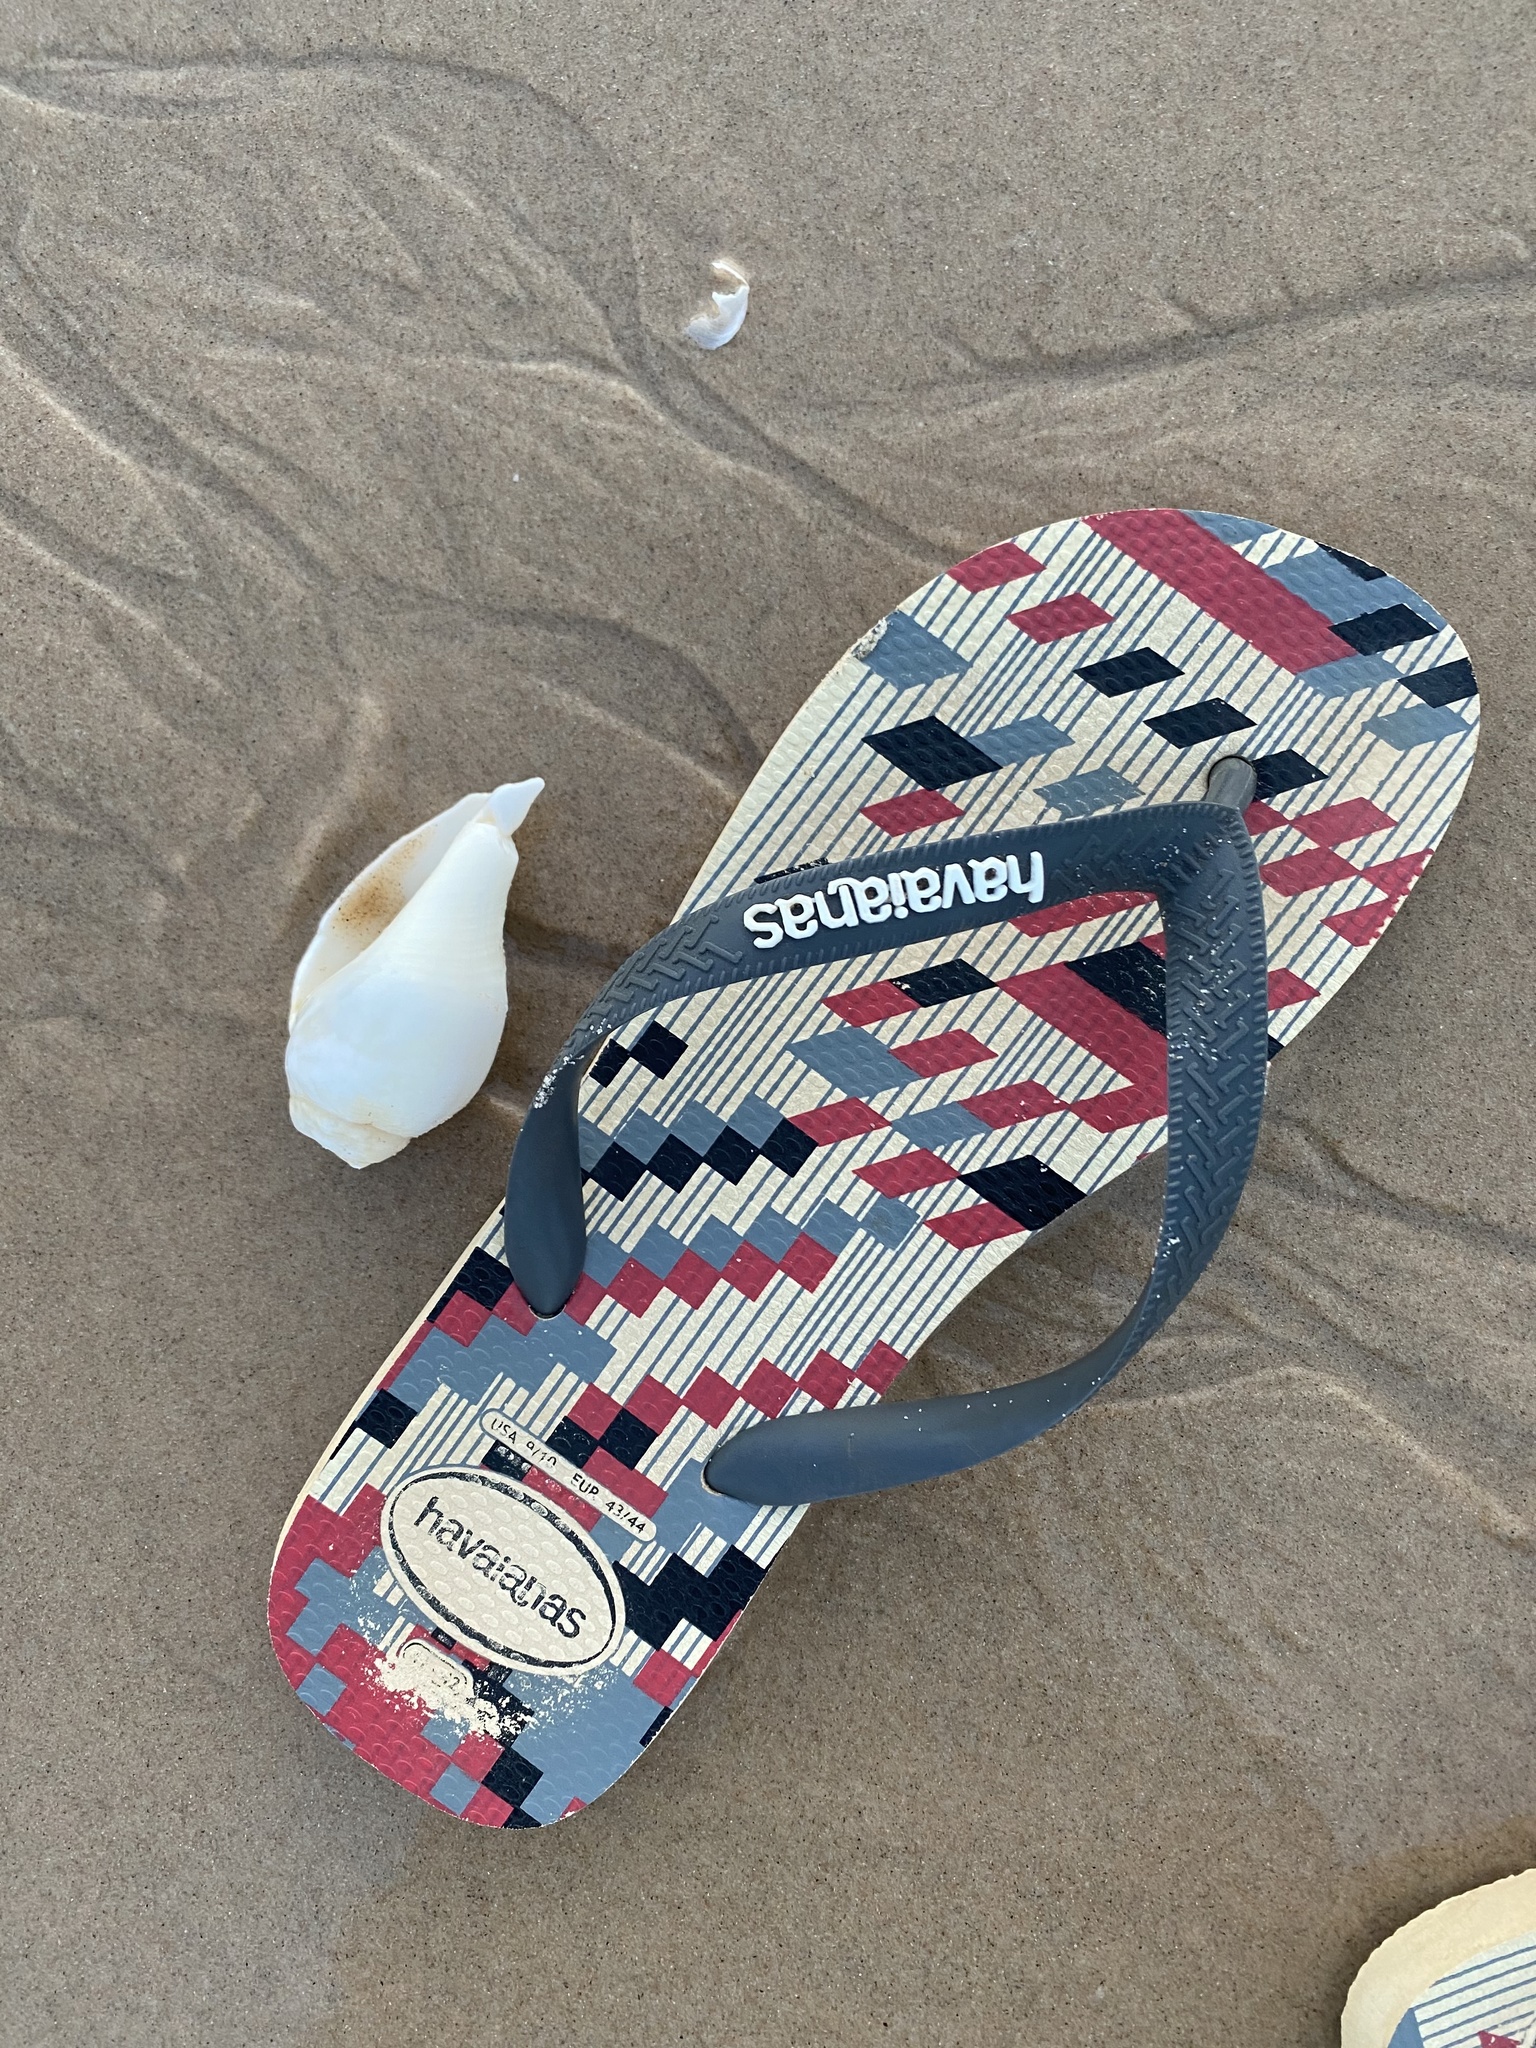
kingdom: Animalia
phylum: Mollusca
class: Gastropoda
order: Neogastropoda
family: Turbinellidae
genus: Turbinella
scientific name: Turbinella laevigata
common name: Brazilian chank
